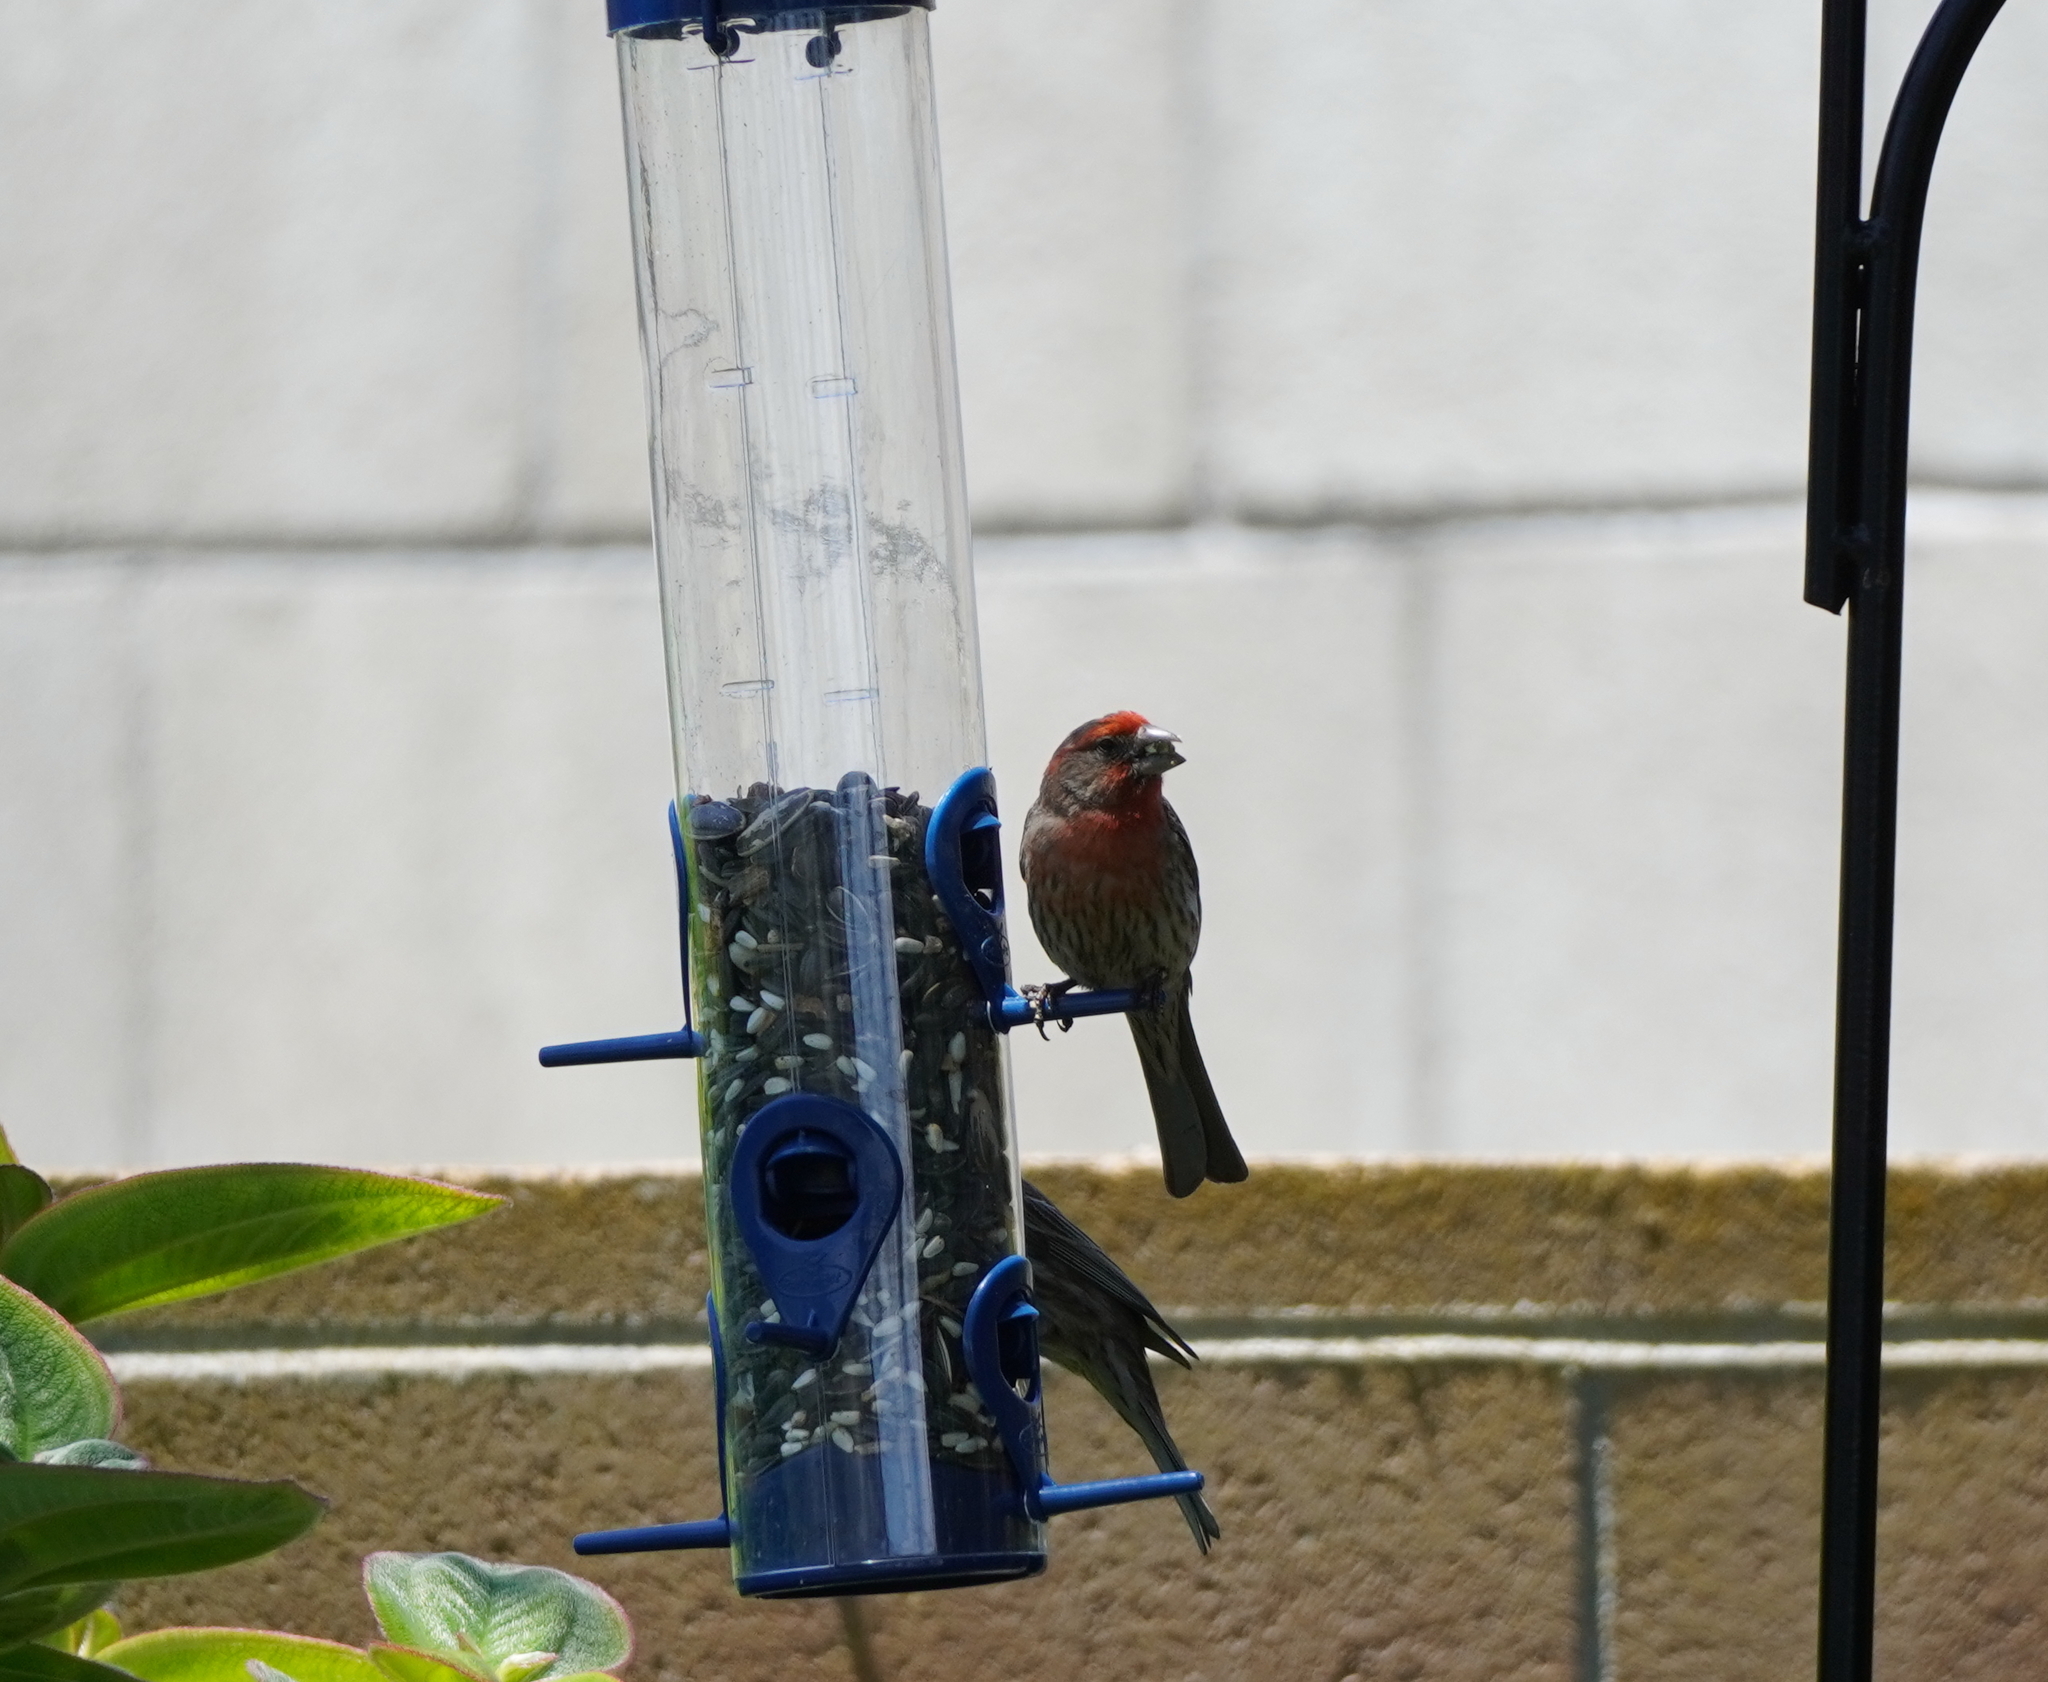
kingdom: Animalia
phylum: Chordata
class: Aves
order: Passeriformes
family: Fringillidae
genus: Haemorhous
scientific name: Haemorhous mexicanus
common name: House finch
